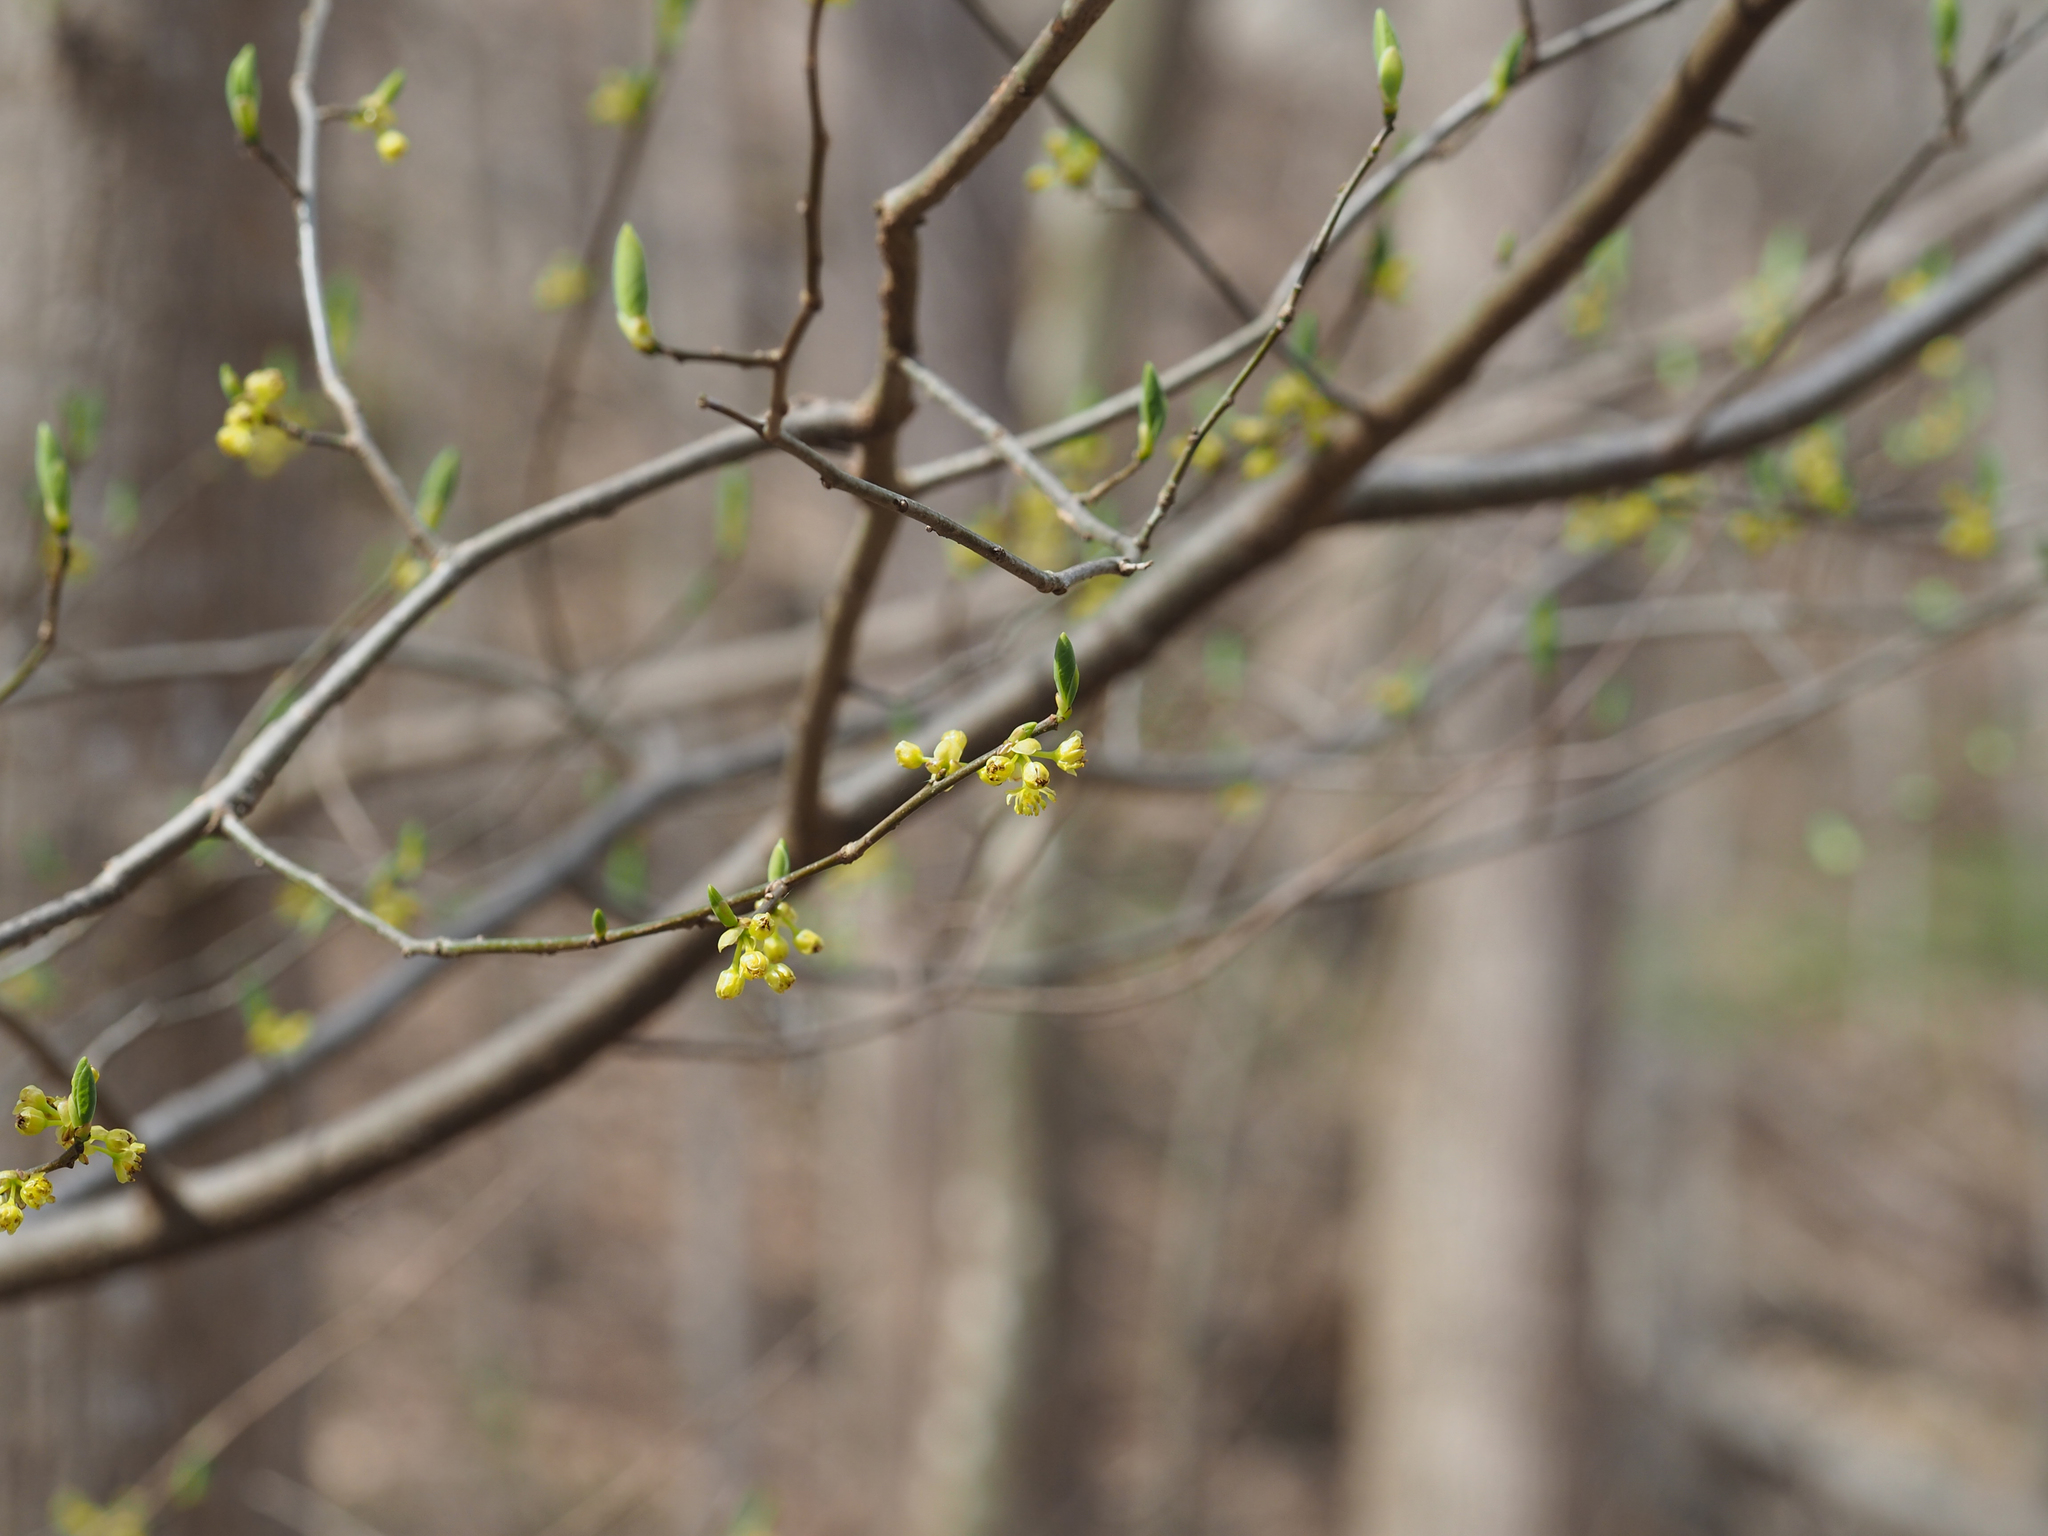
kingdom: Plantae
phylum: Tracheophyta
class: Magnoliopsida
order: Laurales
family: Lauraceae
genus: Lindera
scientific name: Lindera benzoin
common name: Spicebush
